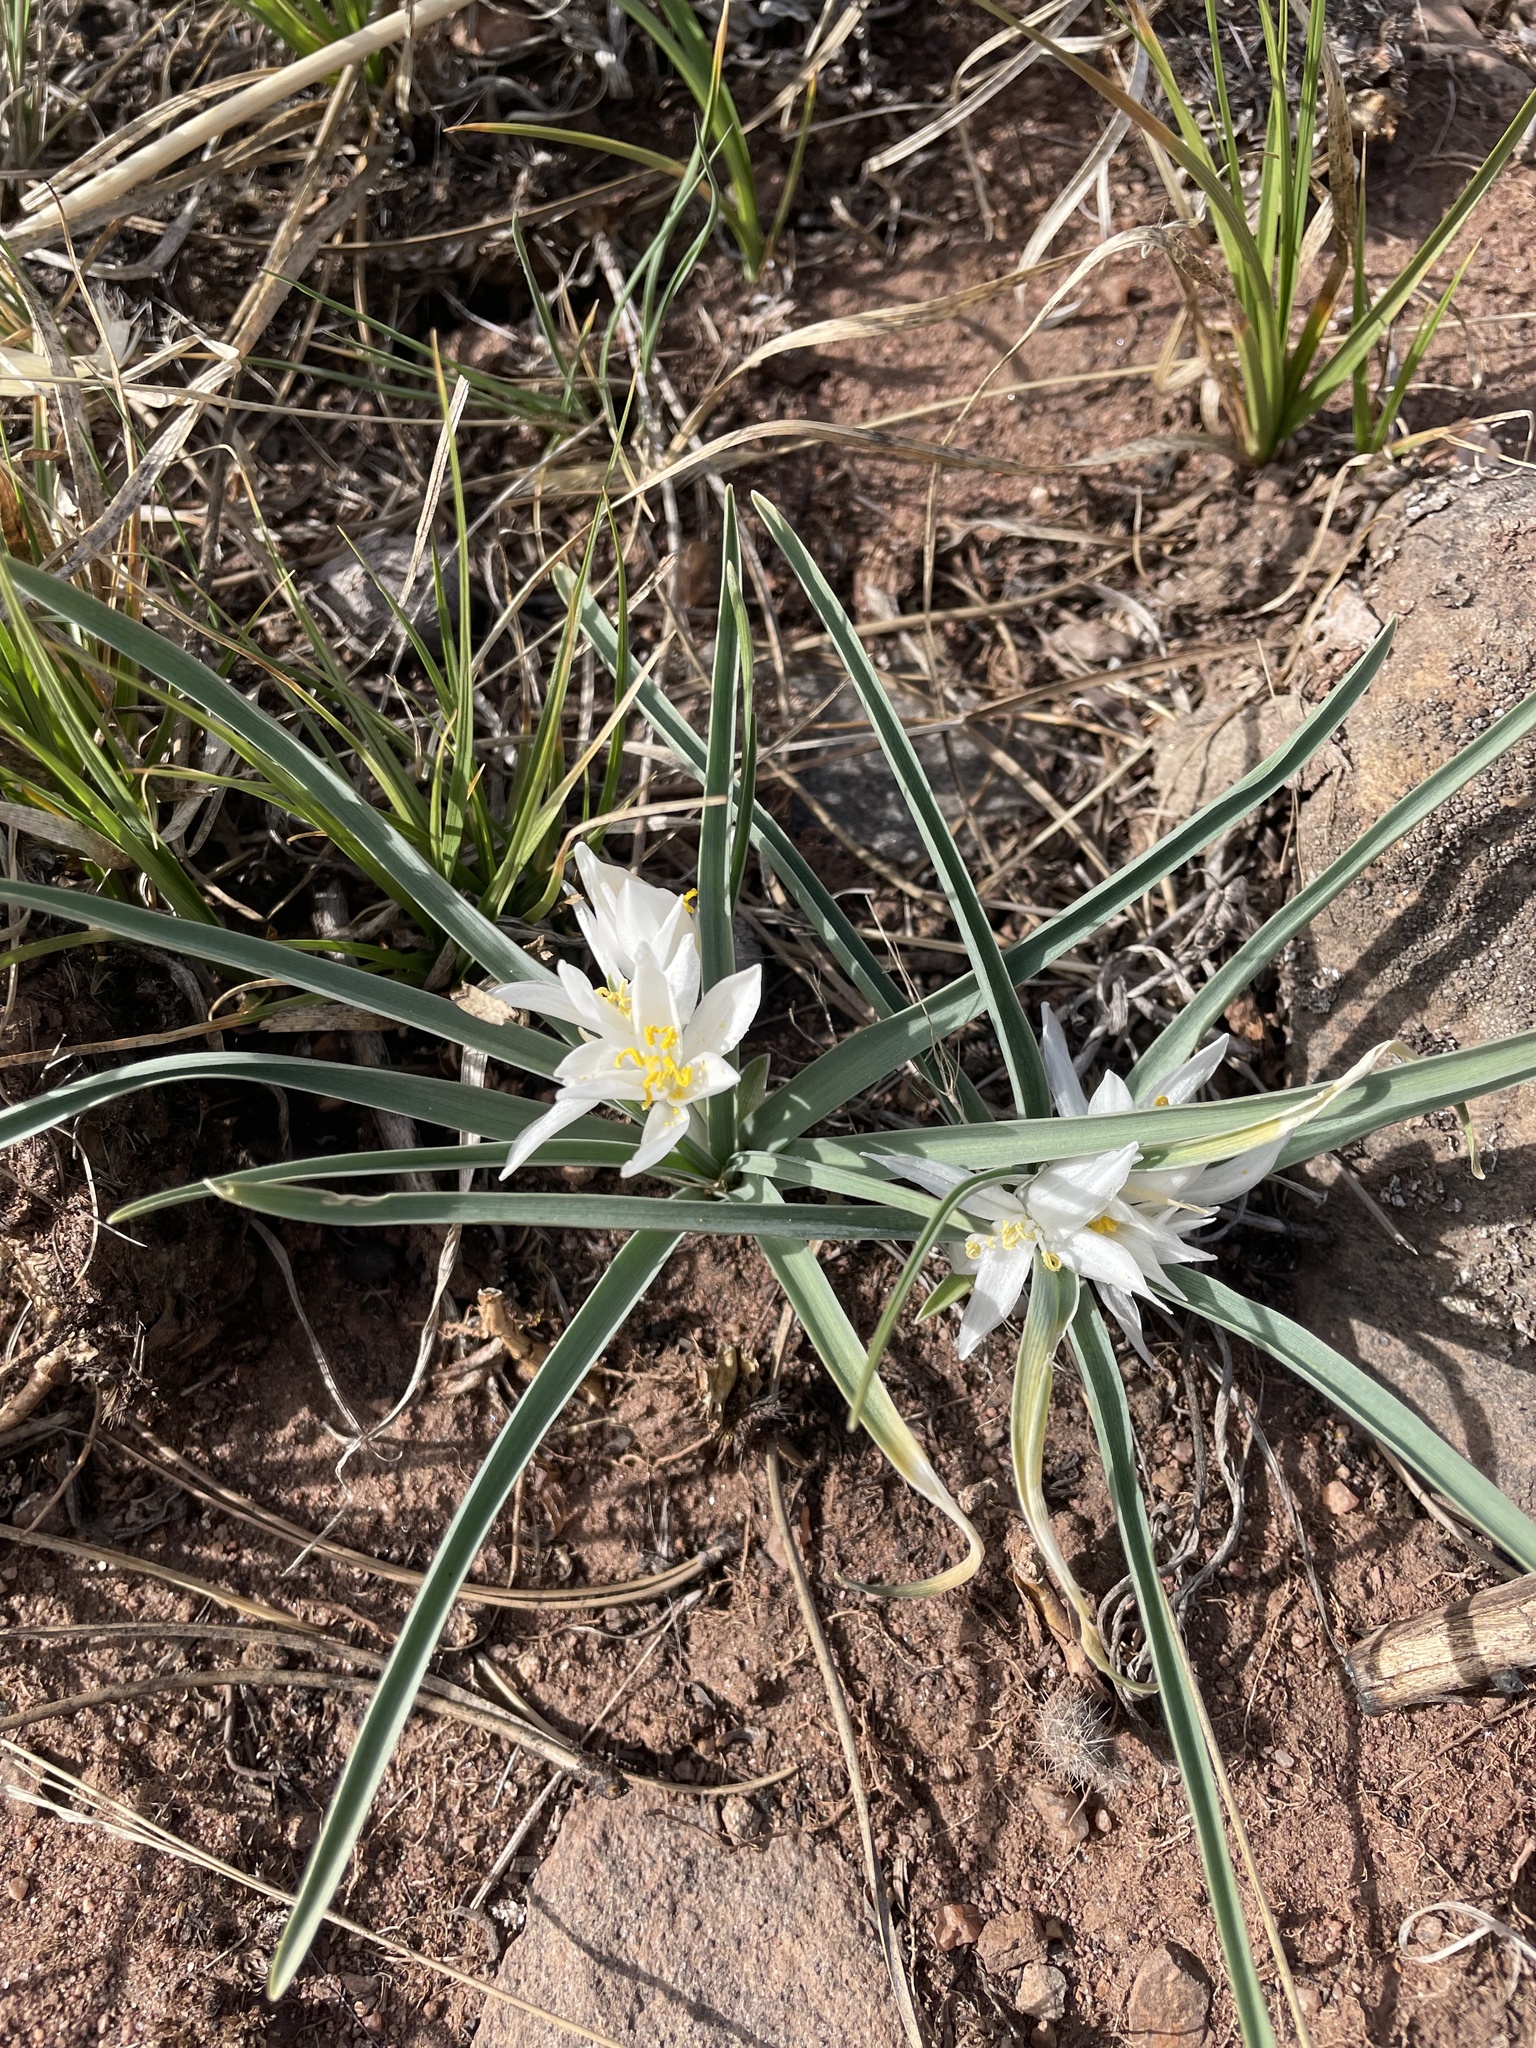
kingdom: Plantae
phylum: Tracheophyta
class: Liliopsida
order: Asparagales
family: Asparagaceae
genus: Leucocrinum
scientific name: Leucocrinum montanum
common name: Mountain-lily
